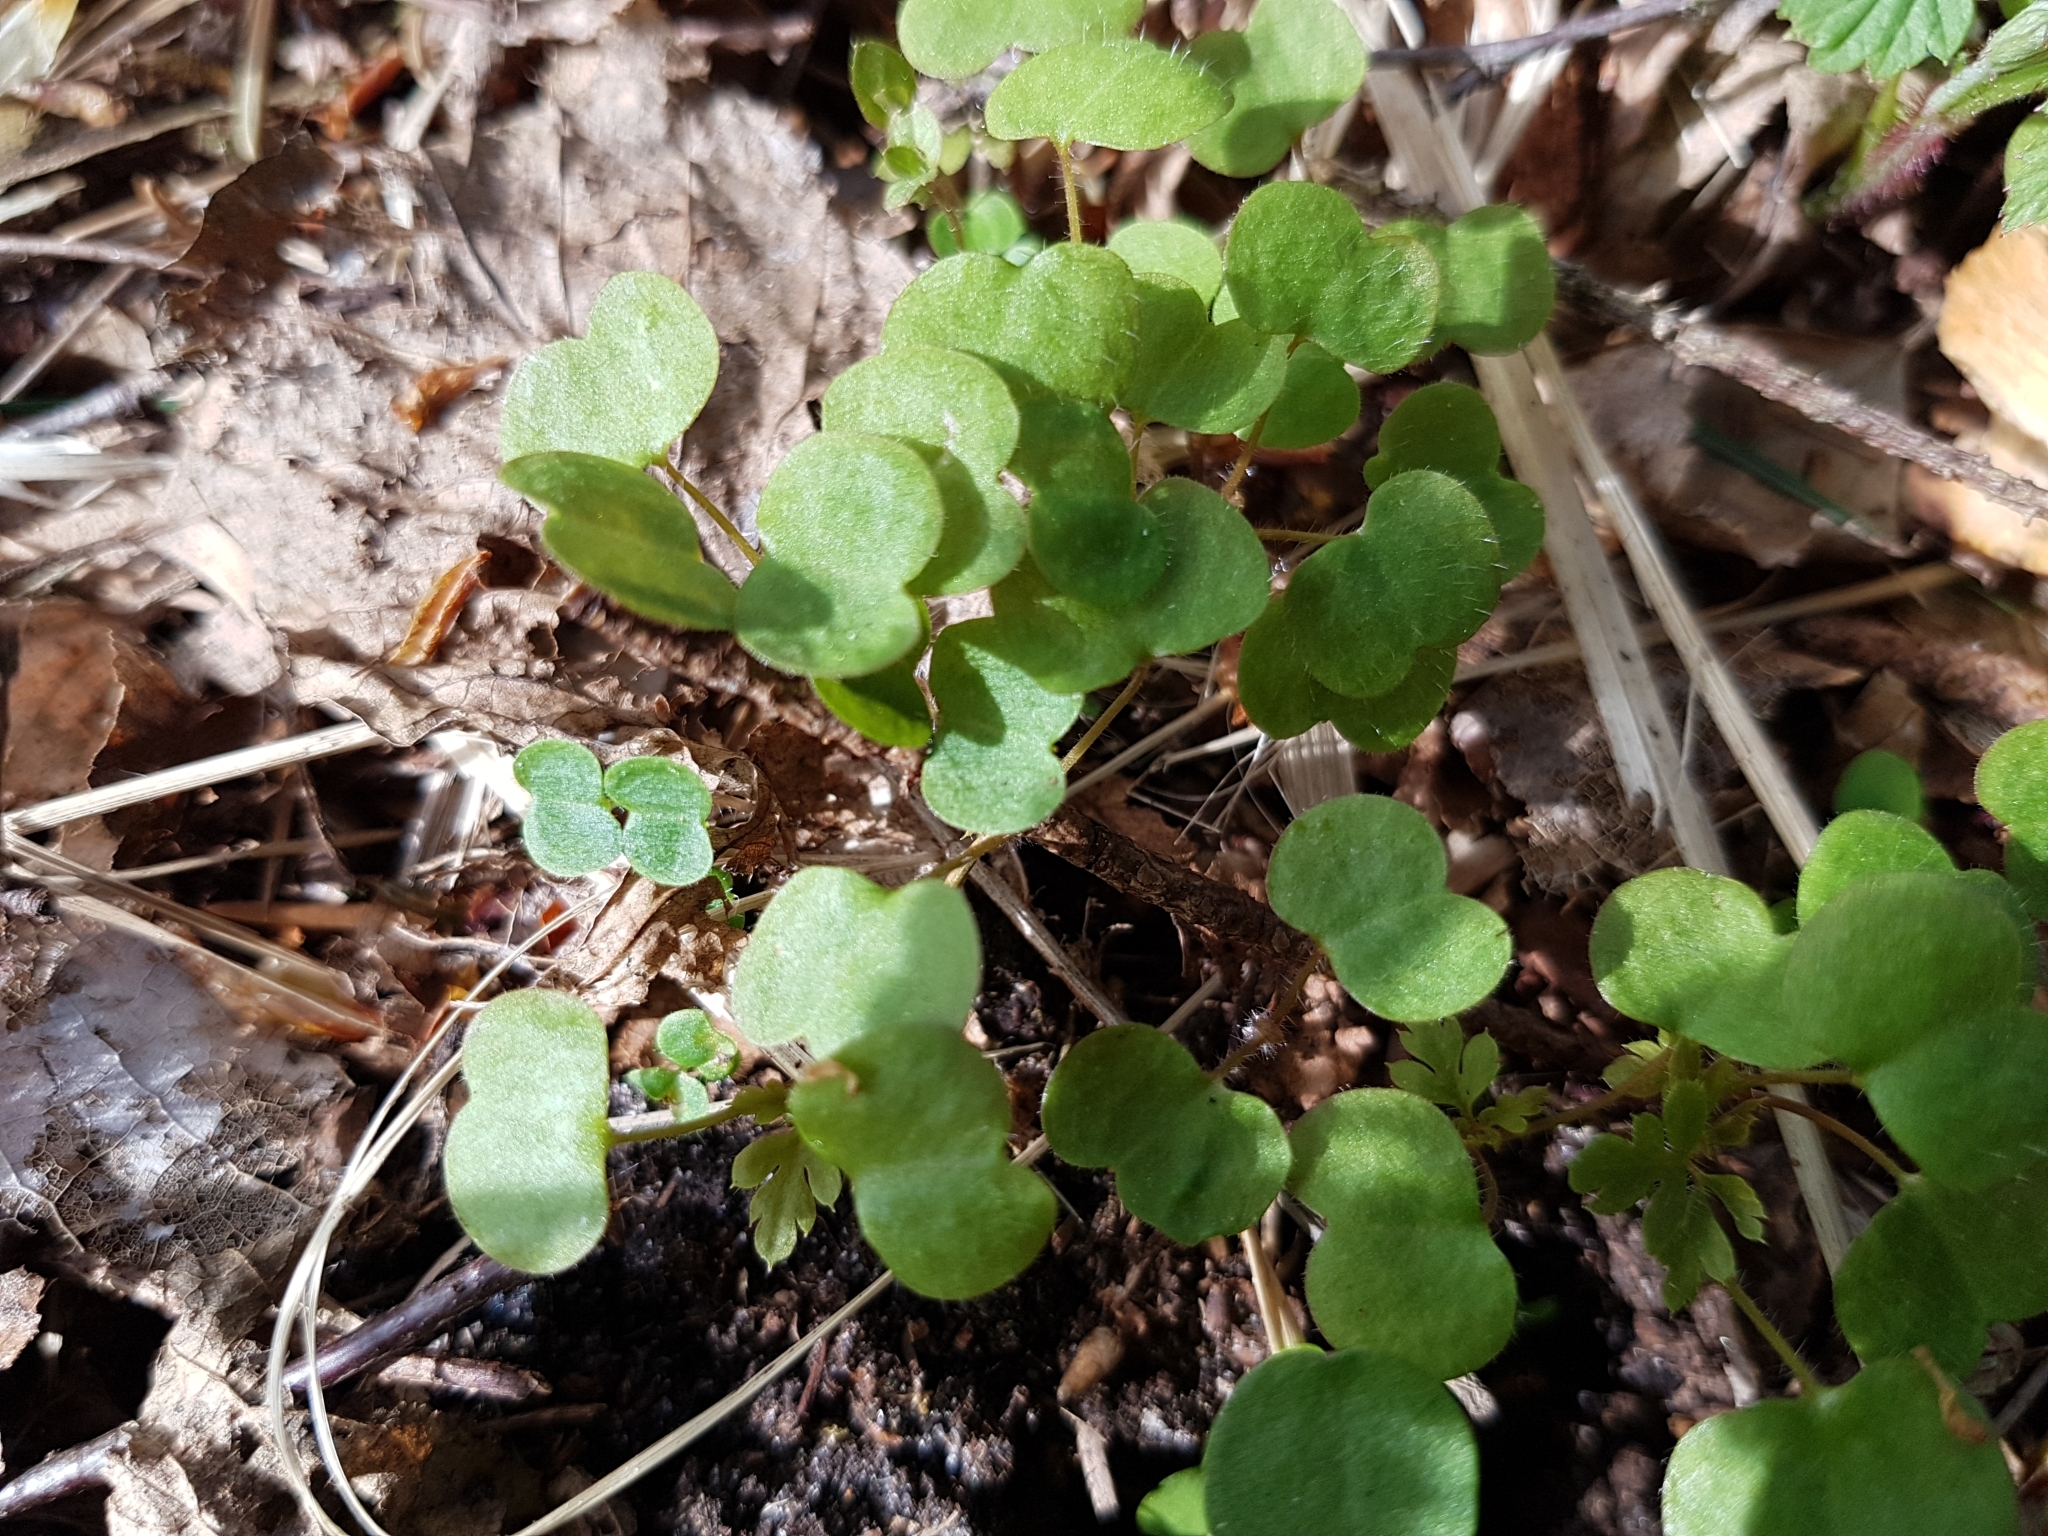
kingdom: Plantae
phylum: Tracheophyta
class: Magnoliopsida
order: Geraniales
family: Geraniaceae
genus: Geranium
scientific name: Geranium robertianum
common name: Herb-robert
